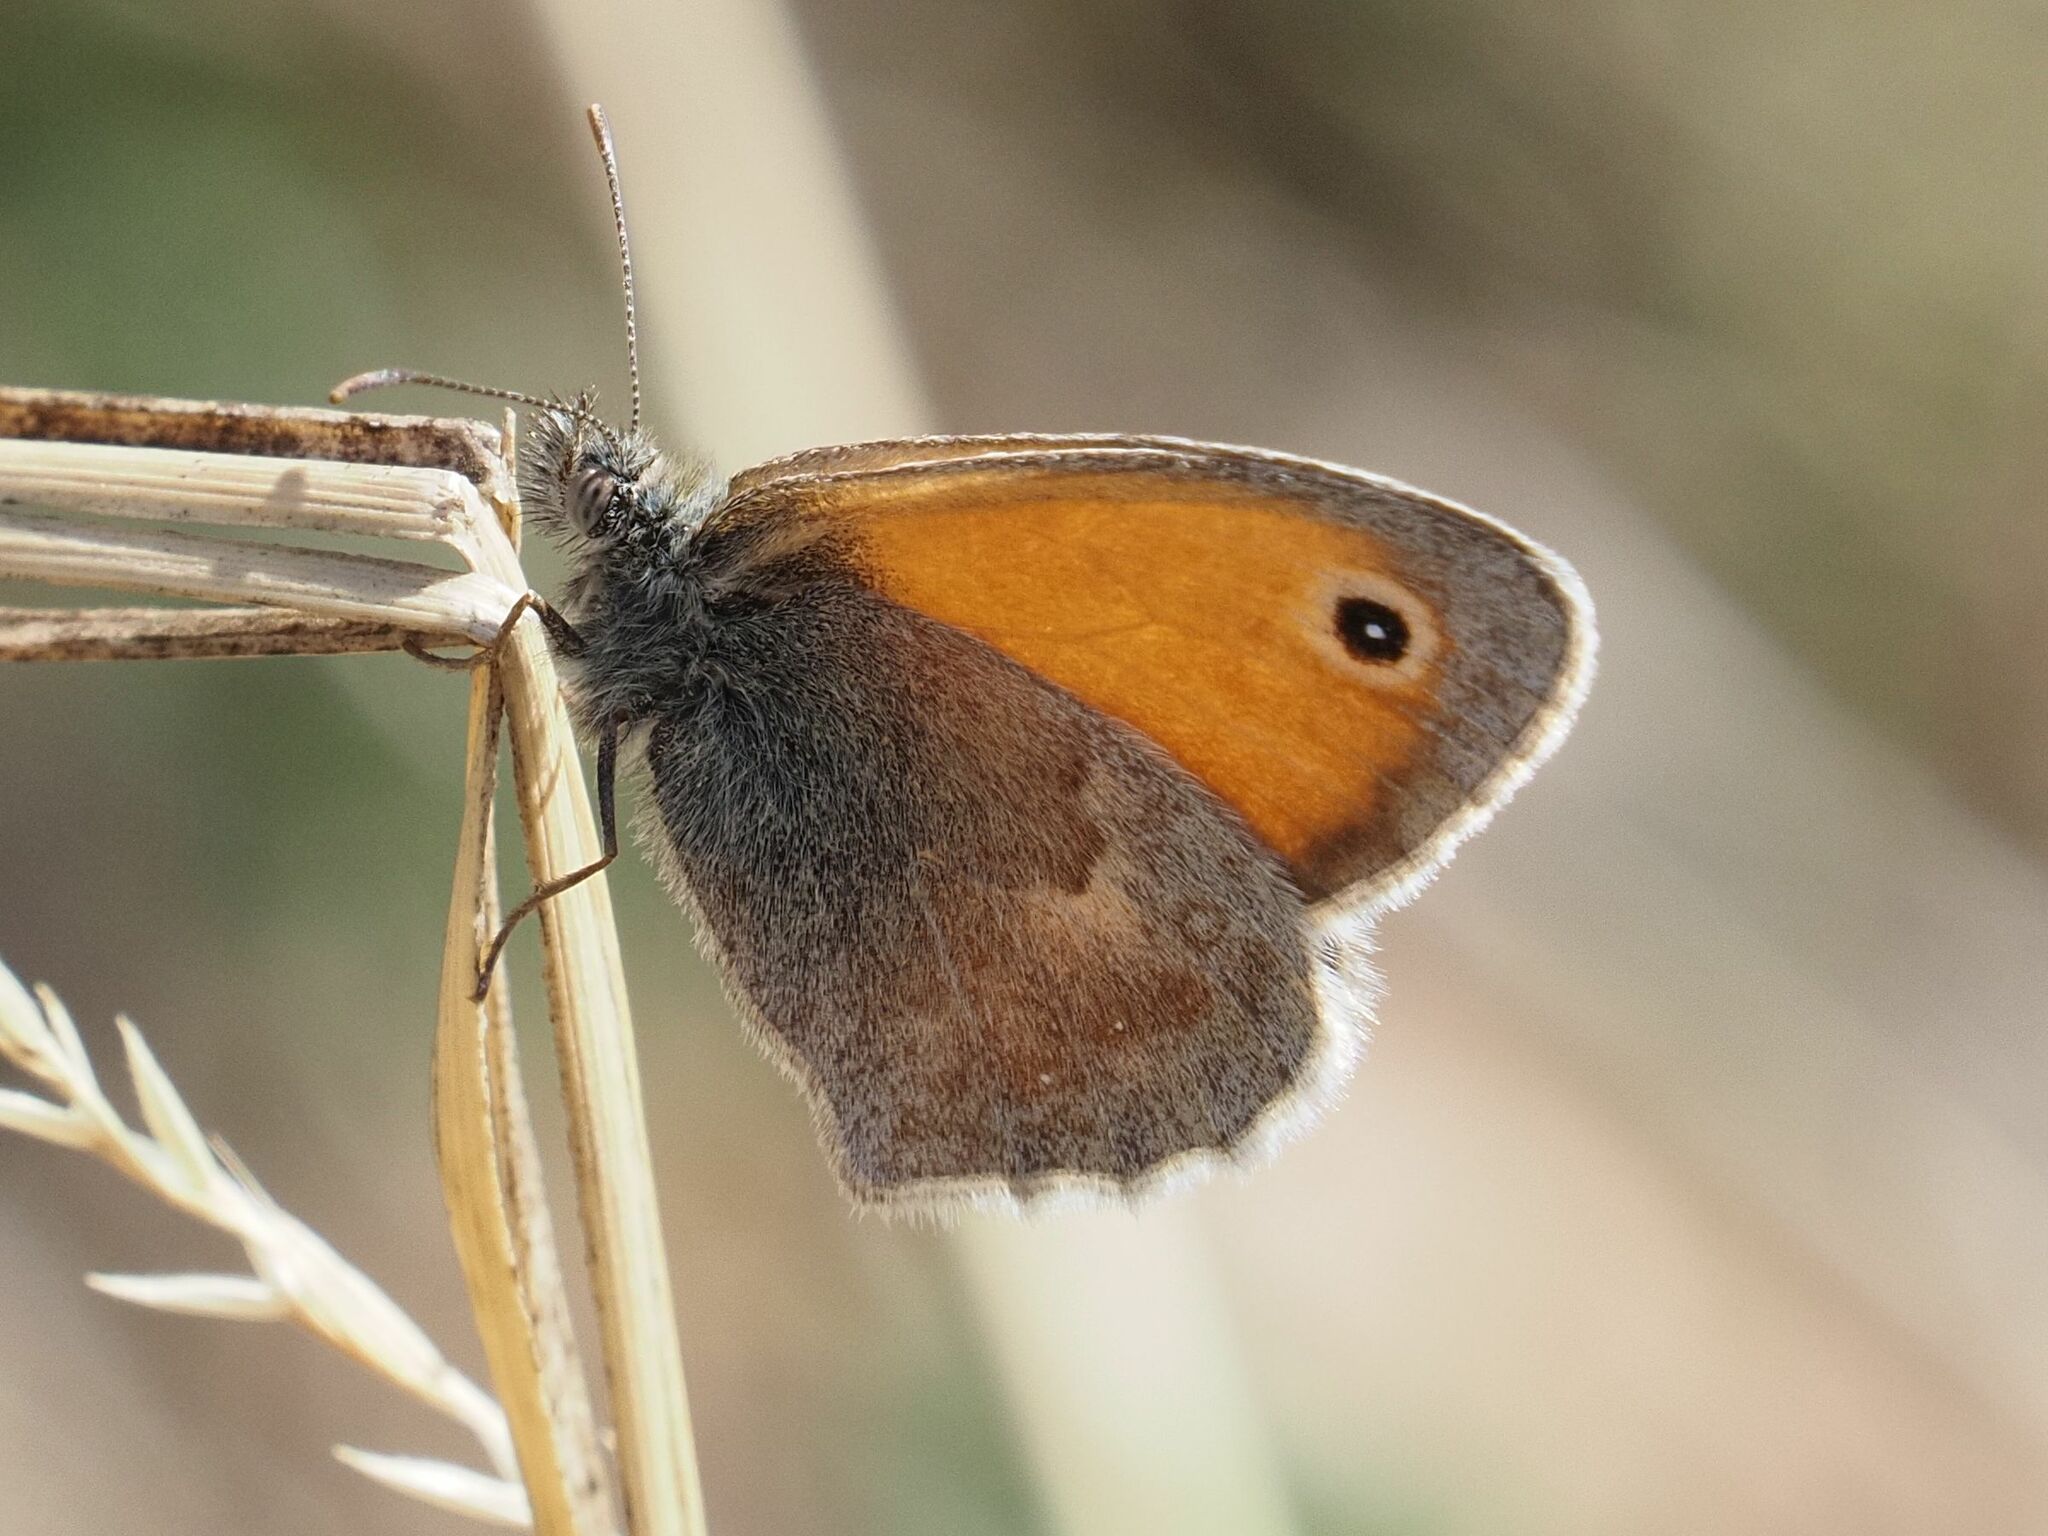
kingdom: Animalia
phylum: Arthropoda
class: Insecta
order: Lepidoptera
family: Nymphalidae
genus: Coenonympha
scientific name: Coenonympha pamphilus
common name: Small heath
